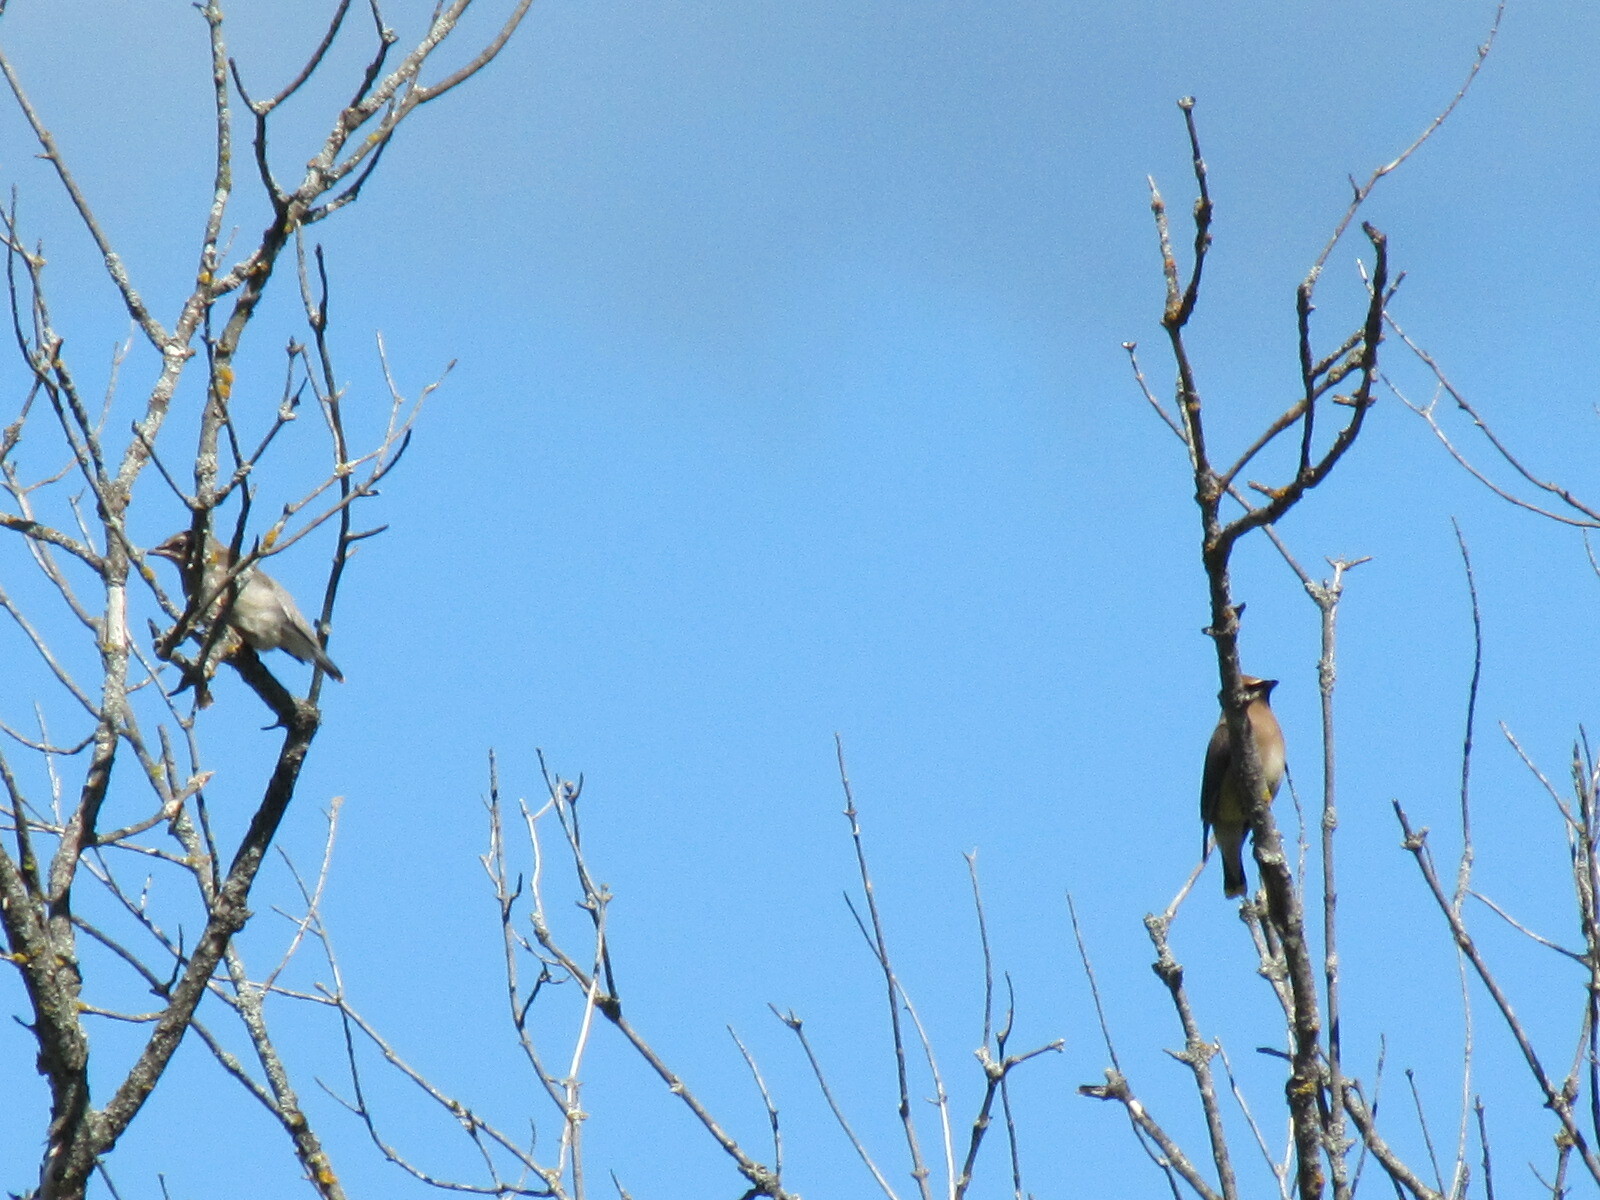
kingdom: Animalia
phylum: Chordata
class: Aves
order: Passeriformes
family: Bombycillidae
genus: Bombycilla
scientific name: Bombycilla cedrorum
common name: Cedar waxwing
